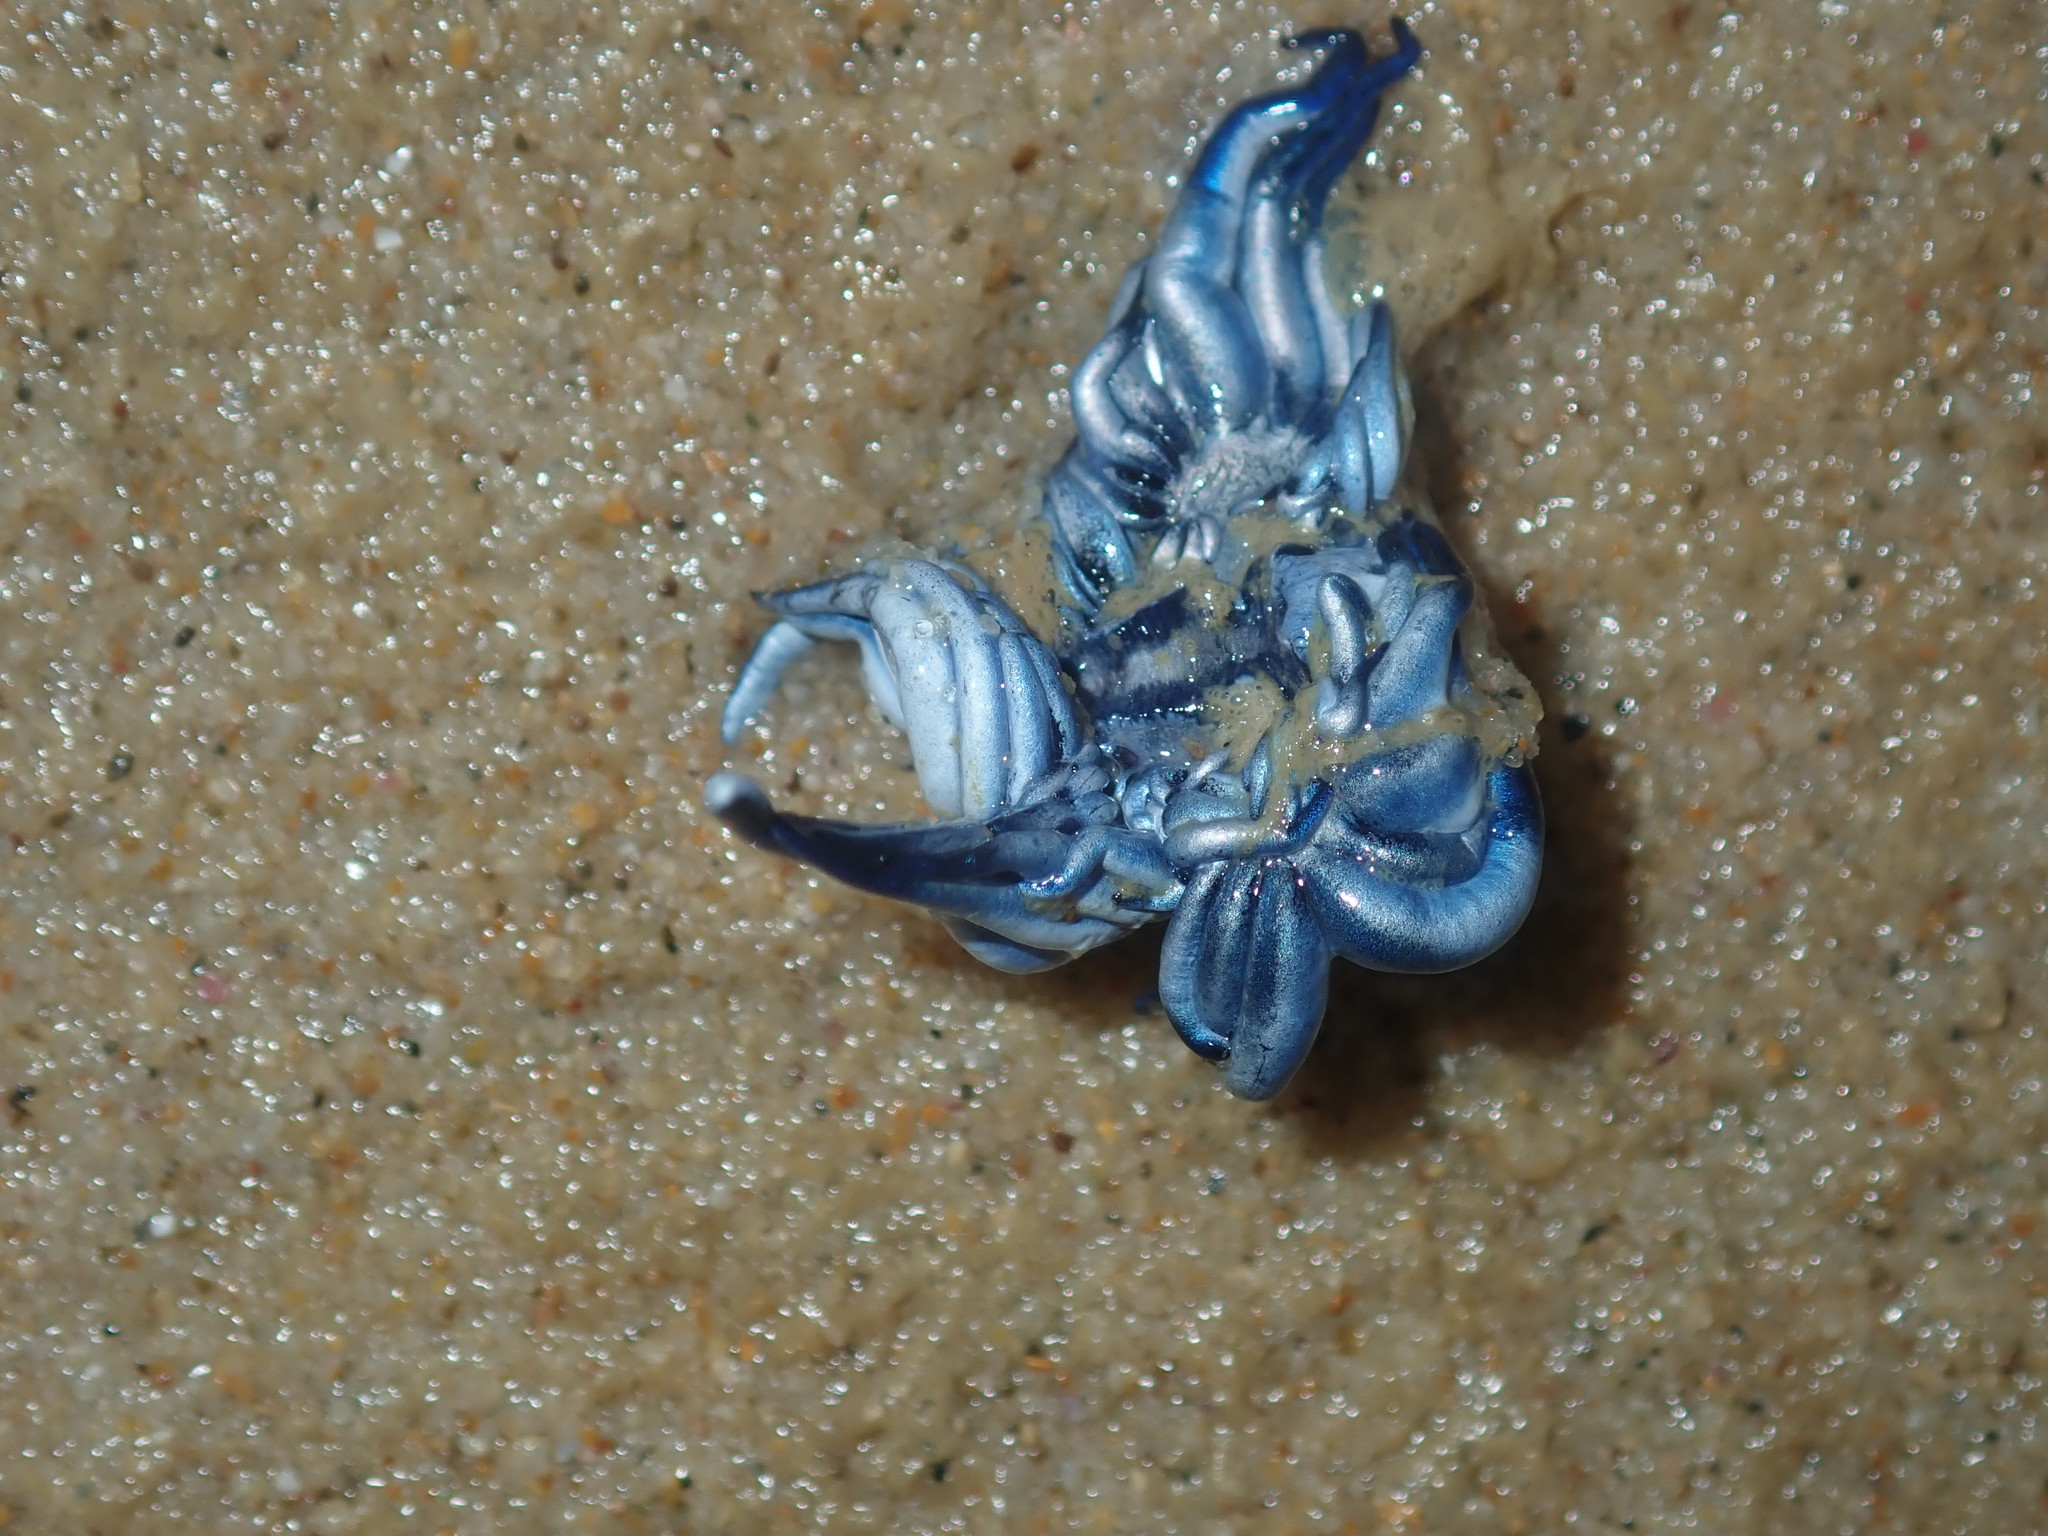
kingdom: Animalia
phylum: Mollusca
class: Gastropoda
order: Nudibranchia
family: Glaucidae
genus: Glaucus
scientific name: Glaucus atlanticus
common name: Purple ocean slug
